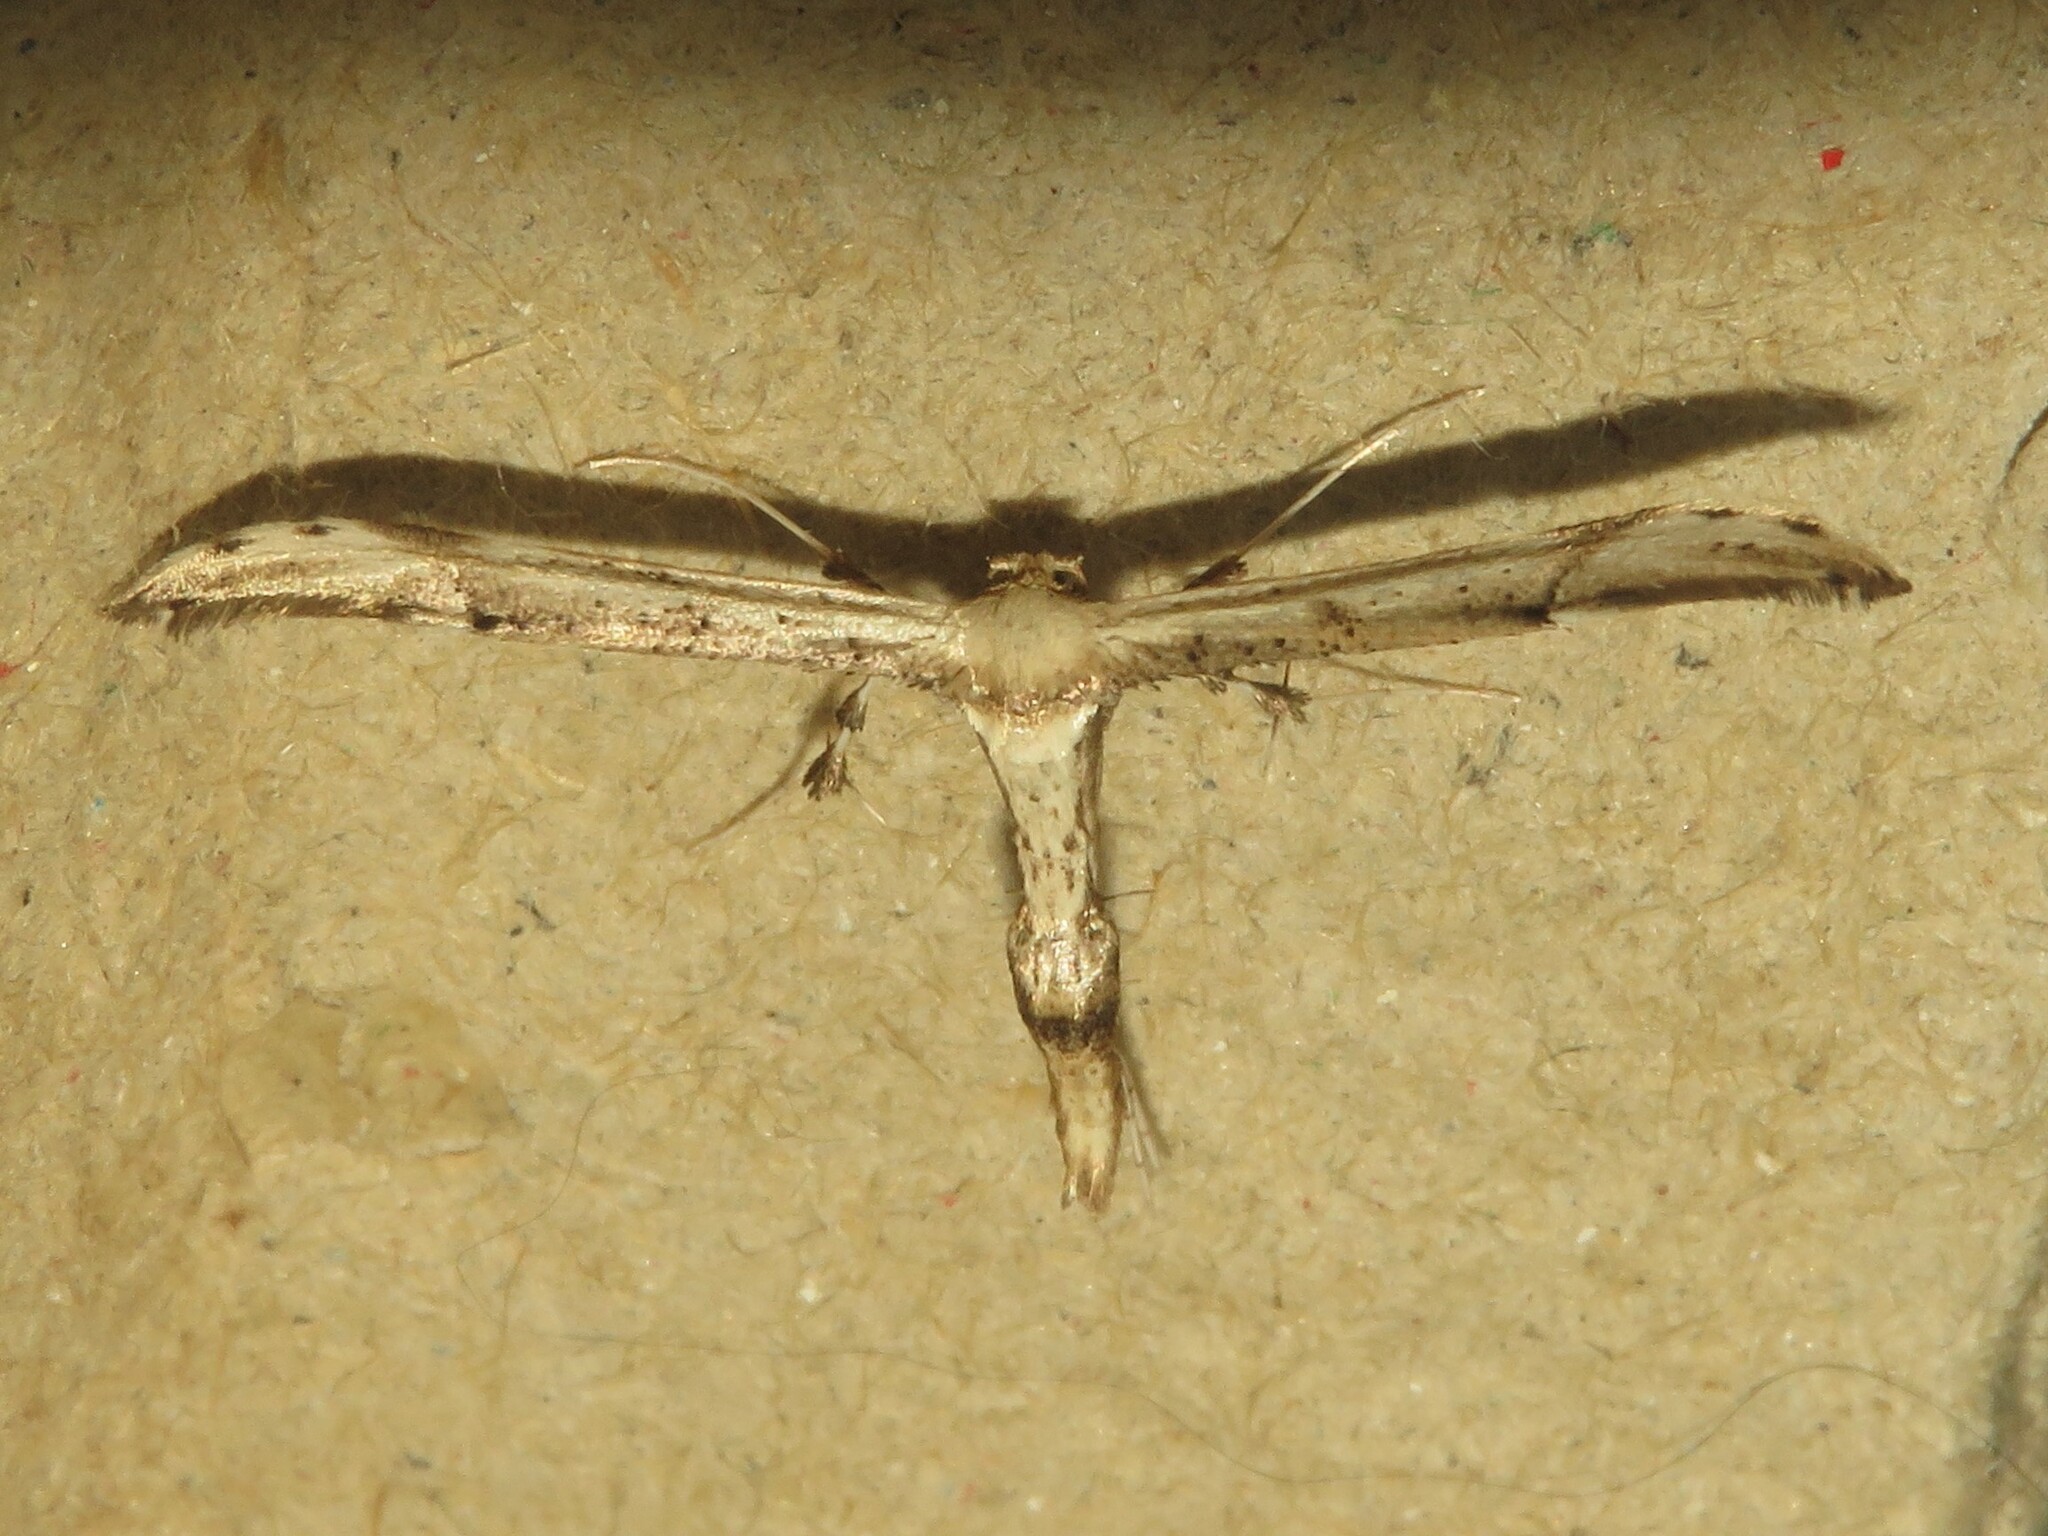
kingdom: Animalia
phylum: Arthropoda
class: Insecta
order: Lepidoptera
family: Pterophoridae
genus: Oidaematophorus
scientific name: Oidaematophorus eupatorii
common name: Eupatorium plume moth
